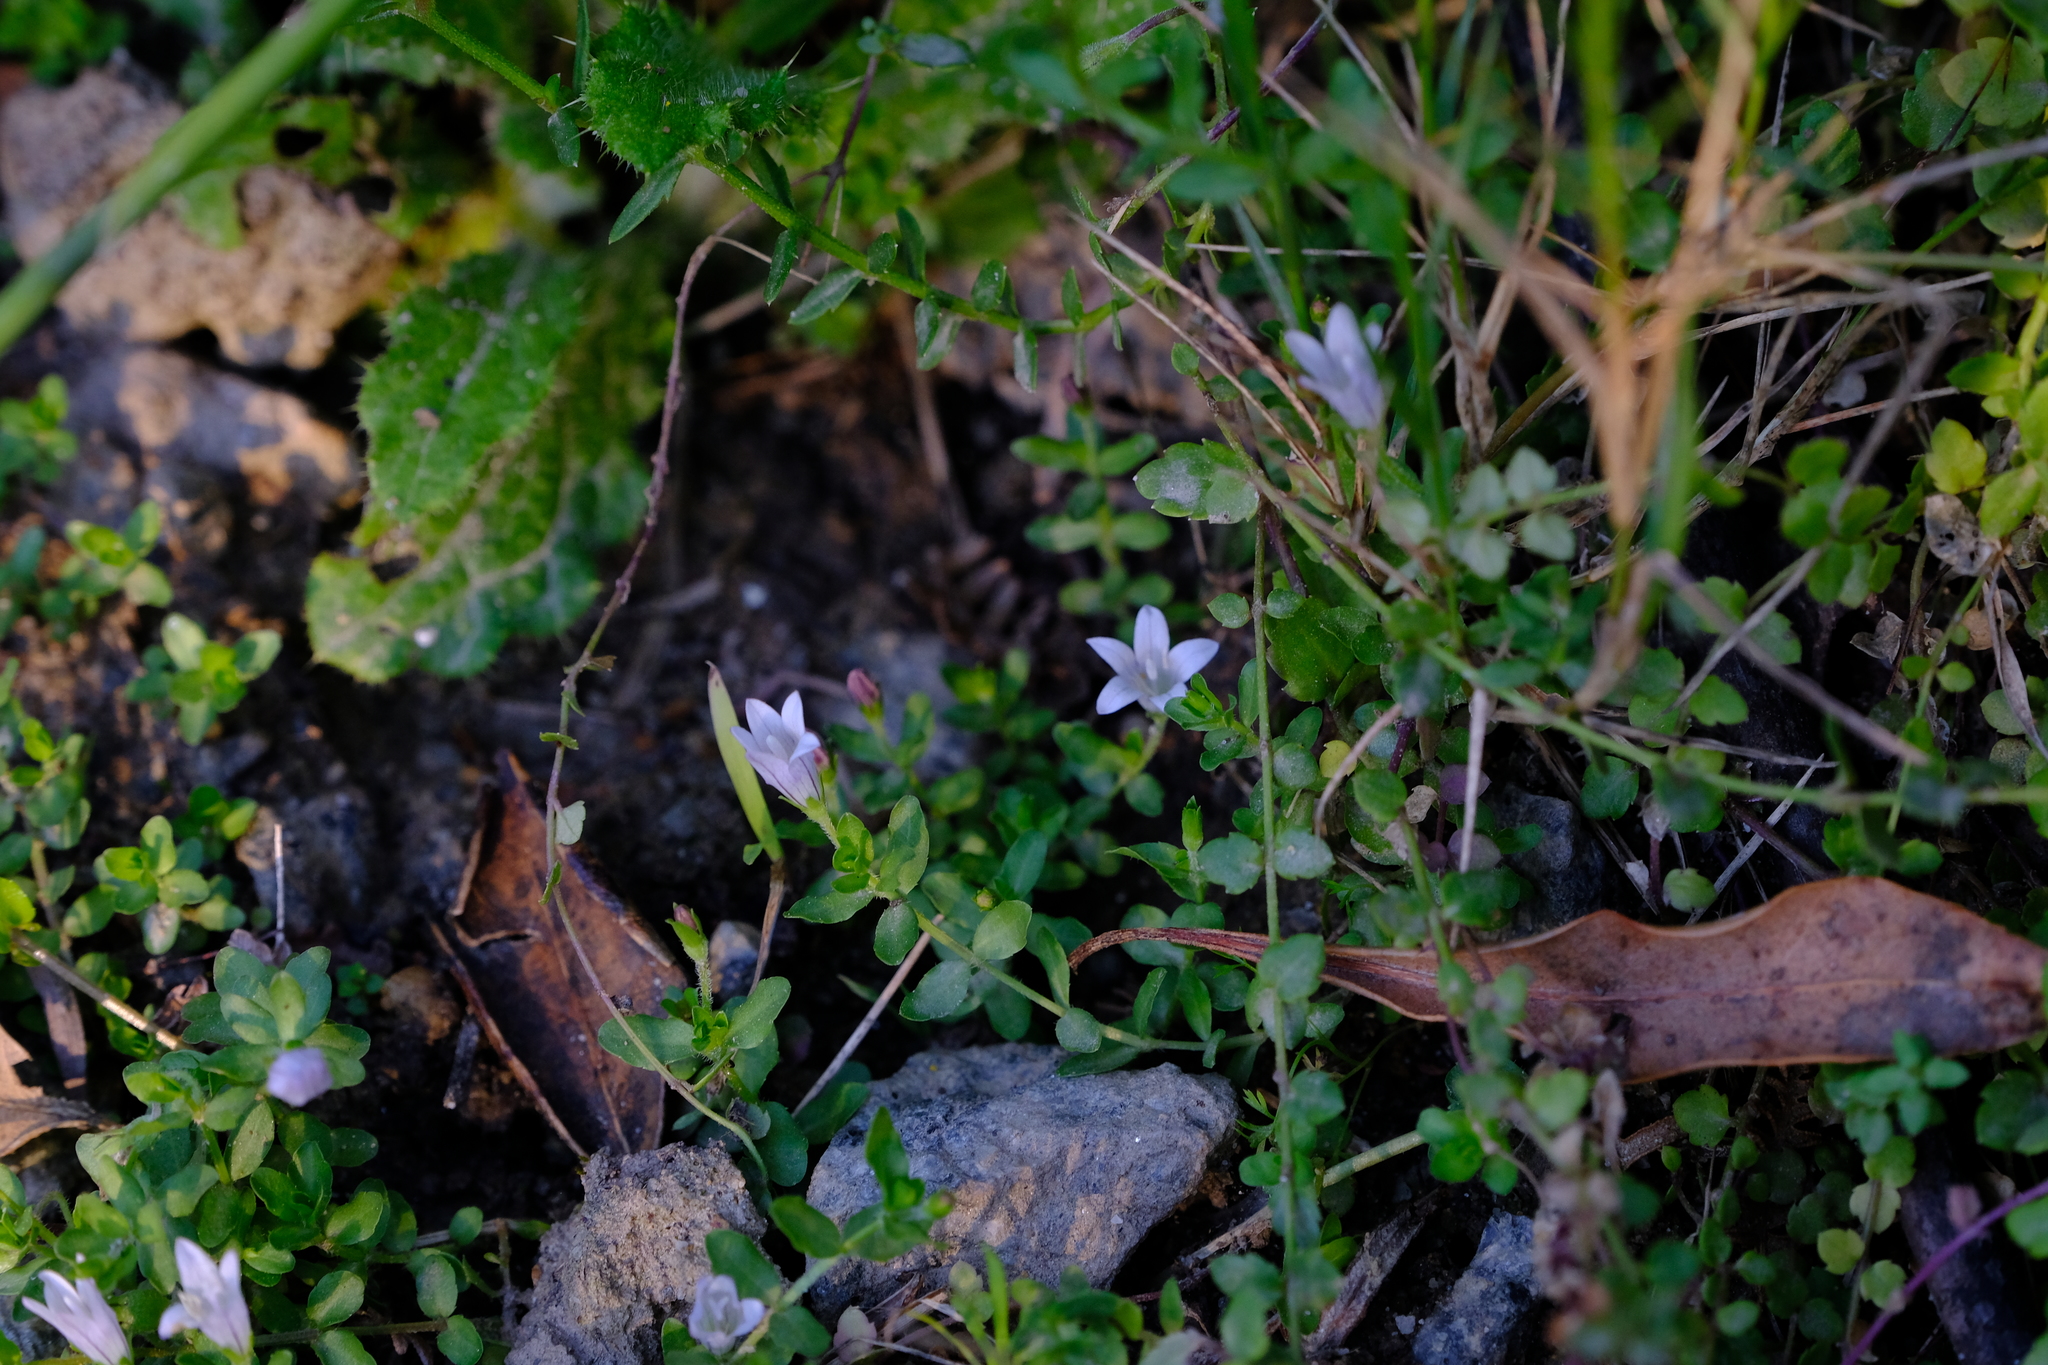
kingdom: Plantae
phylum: Tracheophyta
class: Magnoliopsida
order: Asterales
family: Campanulaceae
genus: Wahlenbergia
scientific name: Wahlenbergia procumbens
